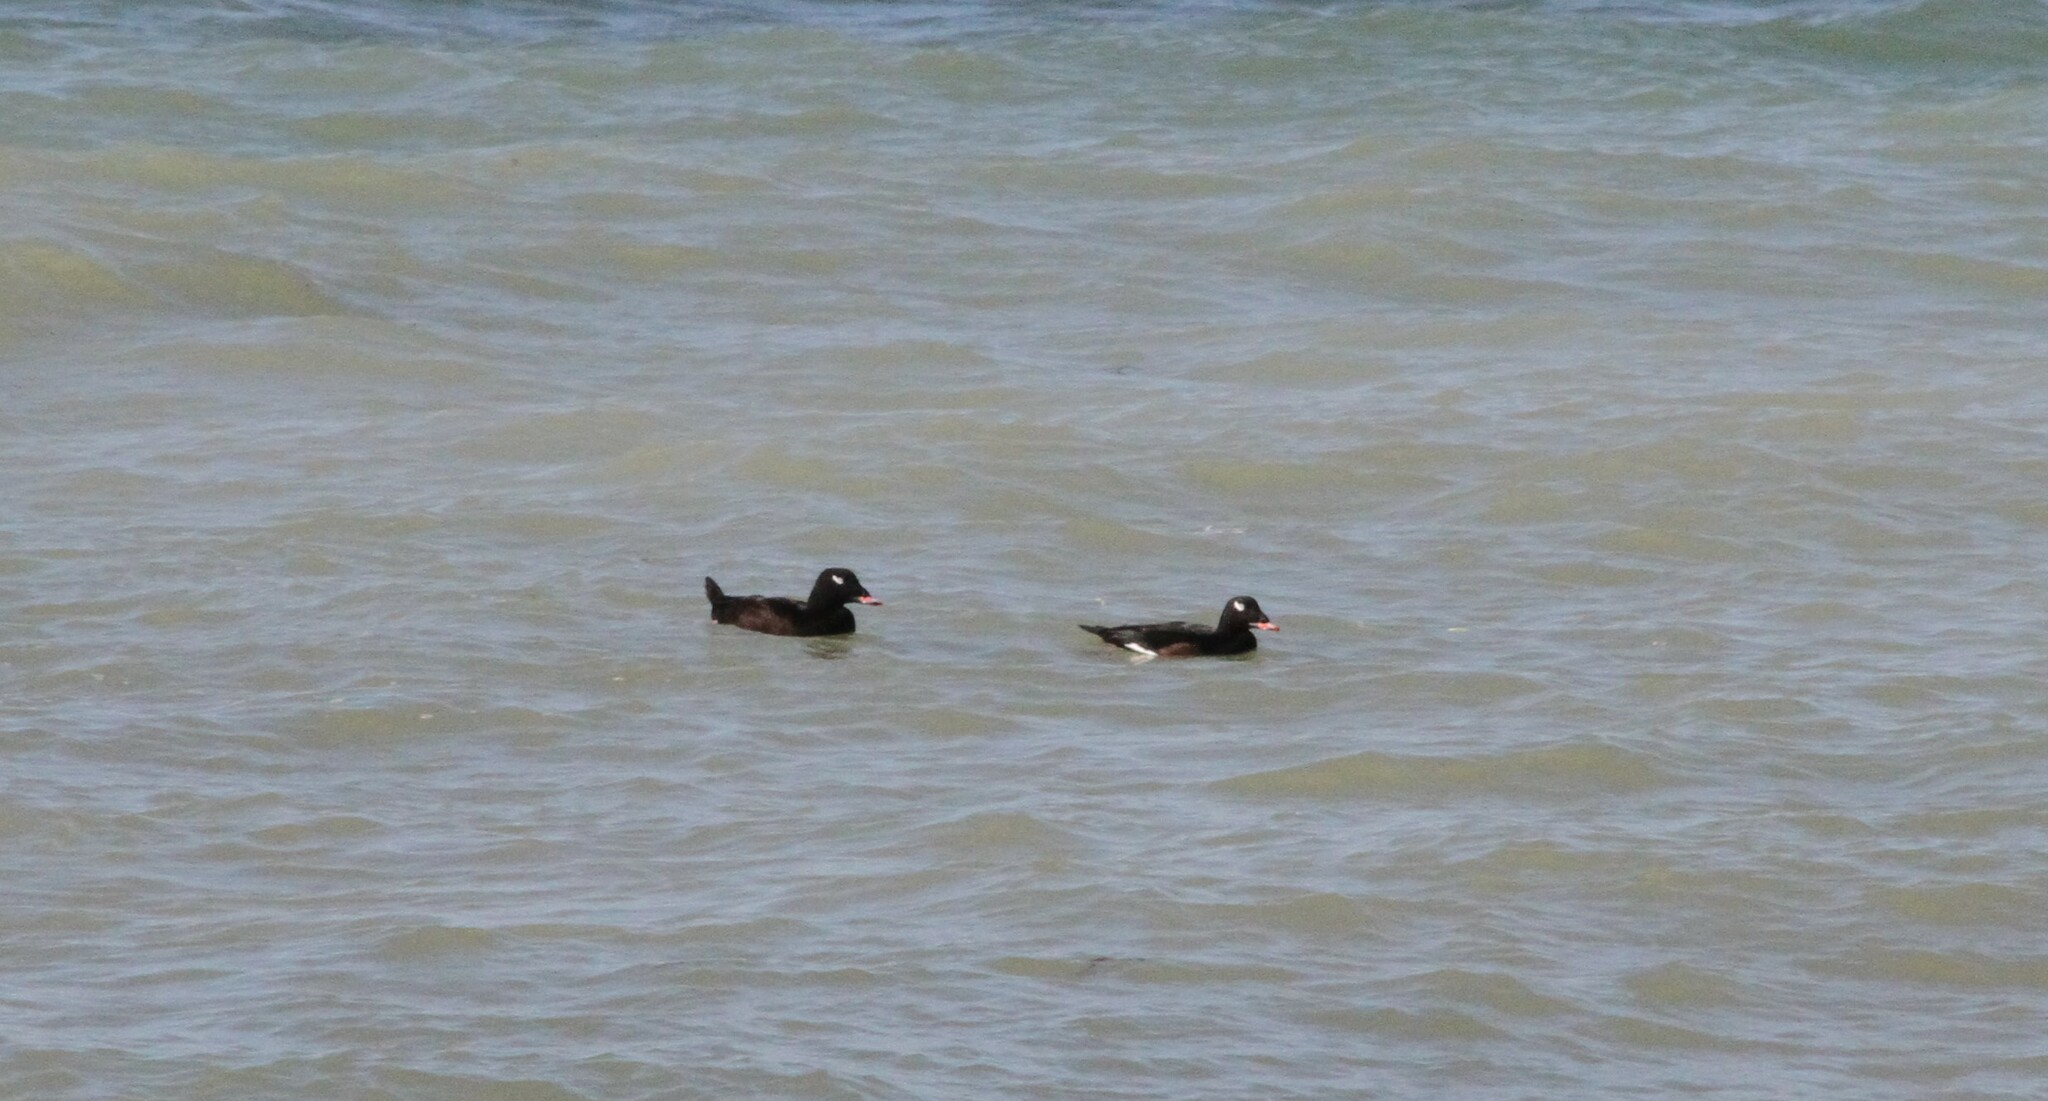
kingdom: Animalia
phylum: Chordata
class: Aves
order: Anseriformes
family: Anatidae
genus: Melanitta
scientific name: Melanitta deglandi
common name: White-winged scoter
